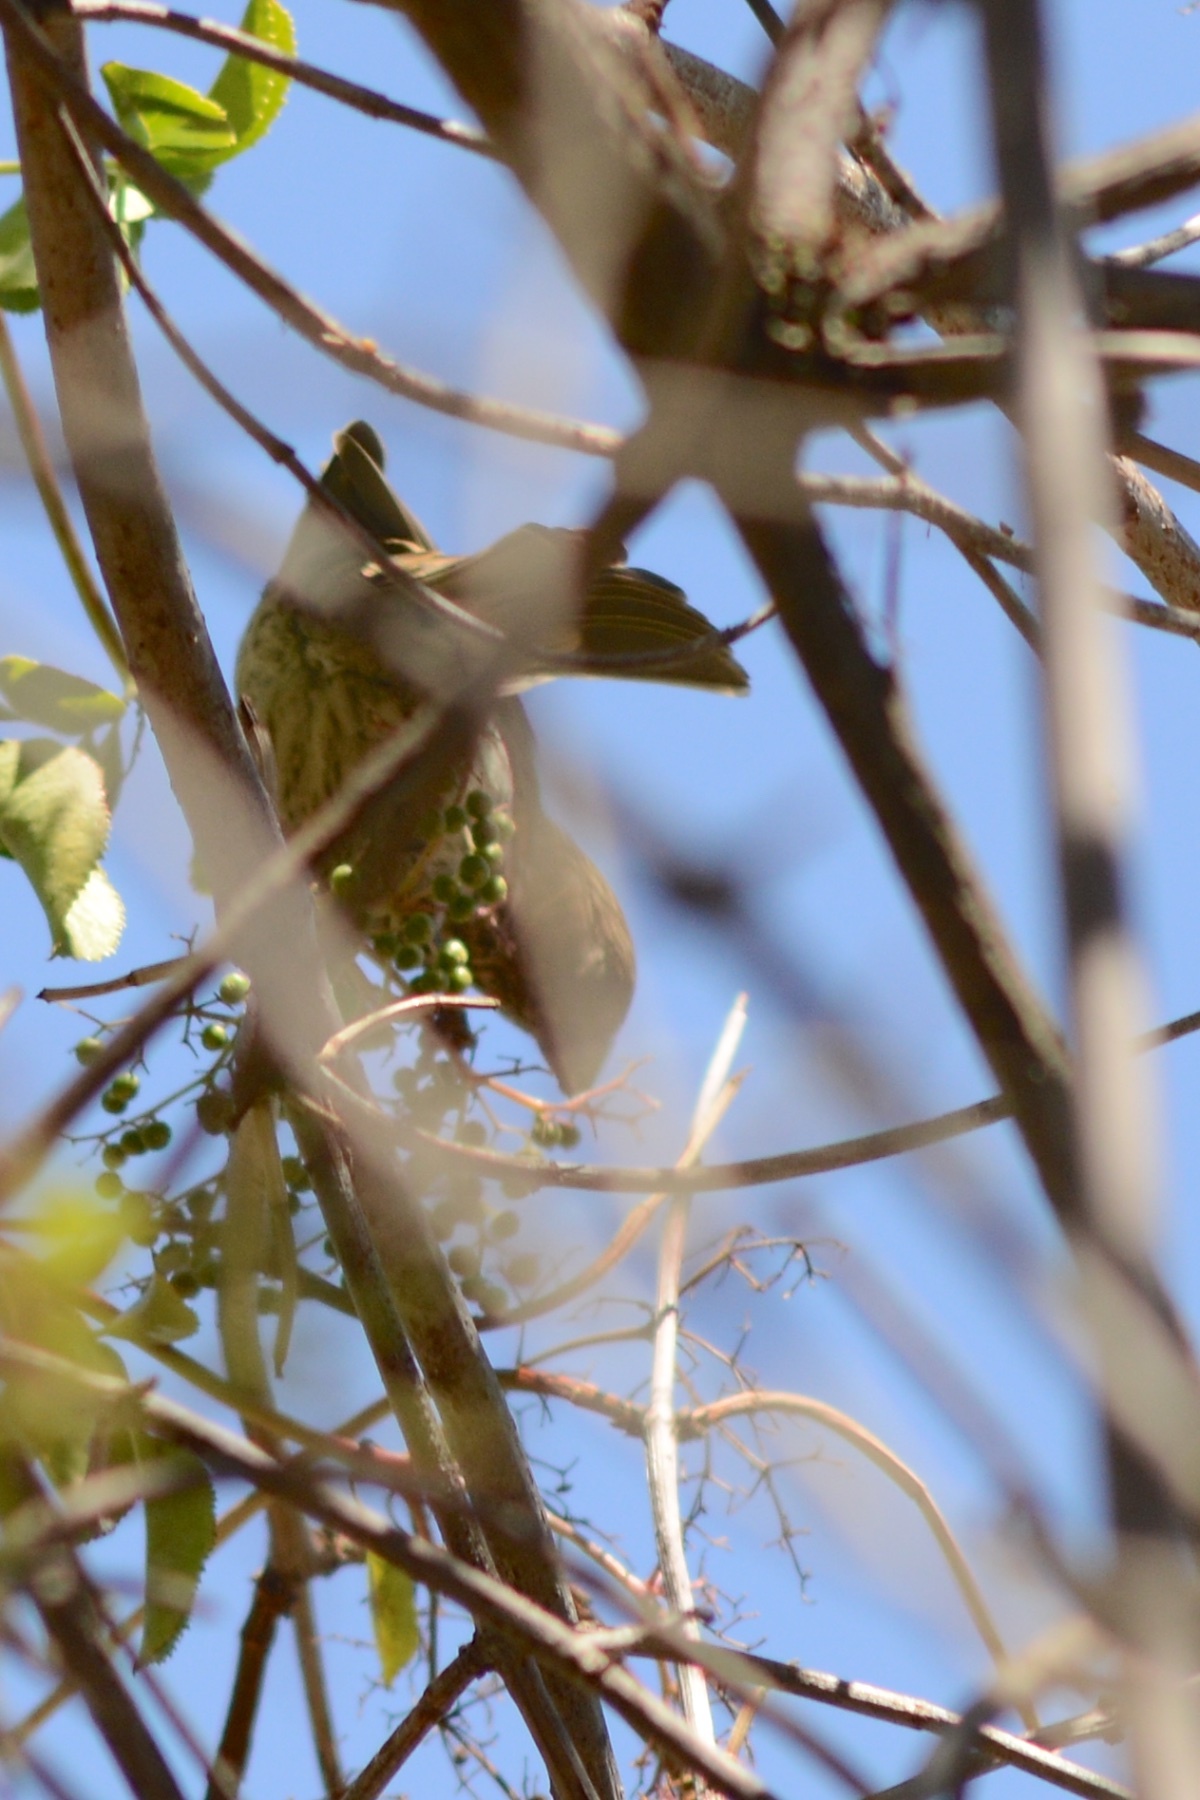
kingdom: Animalia
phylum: Chordata
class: Aves
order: Passeriformes
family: Fringillidae
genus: Haemorhous
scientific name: Haemorhous mexicanus
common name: House finch
